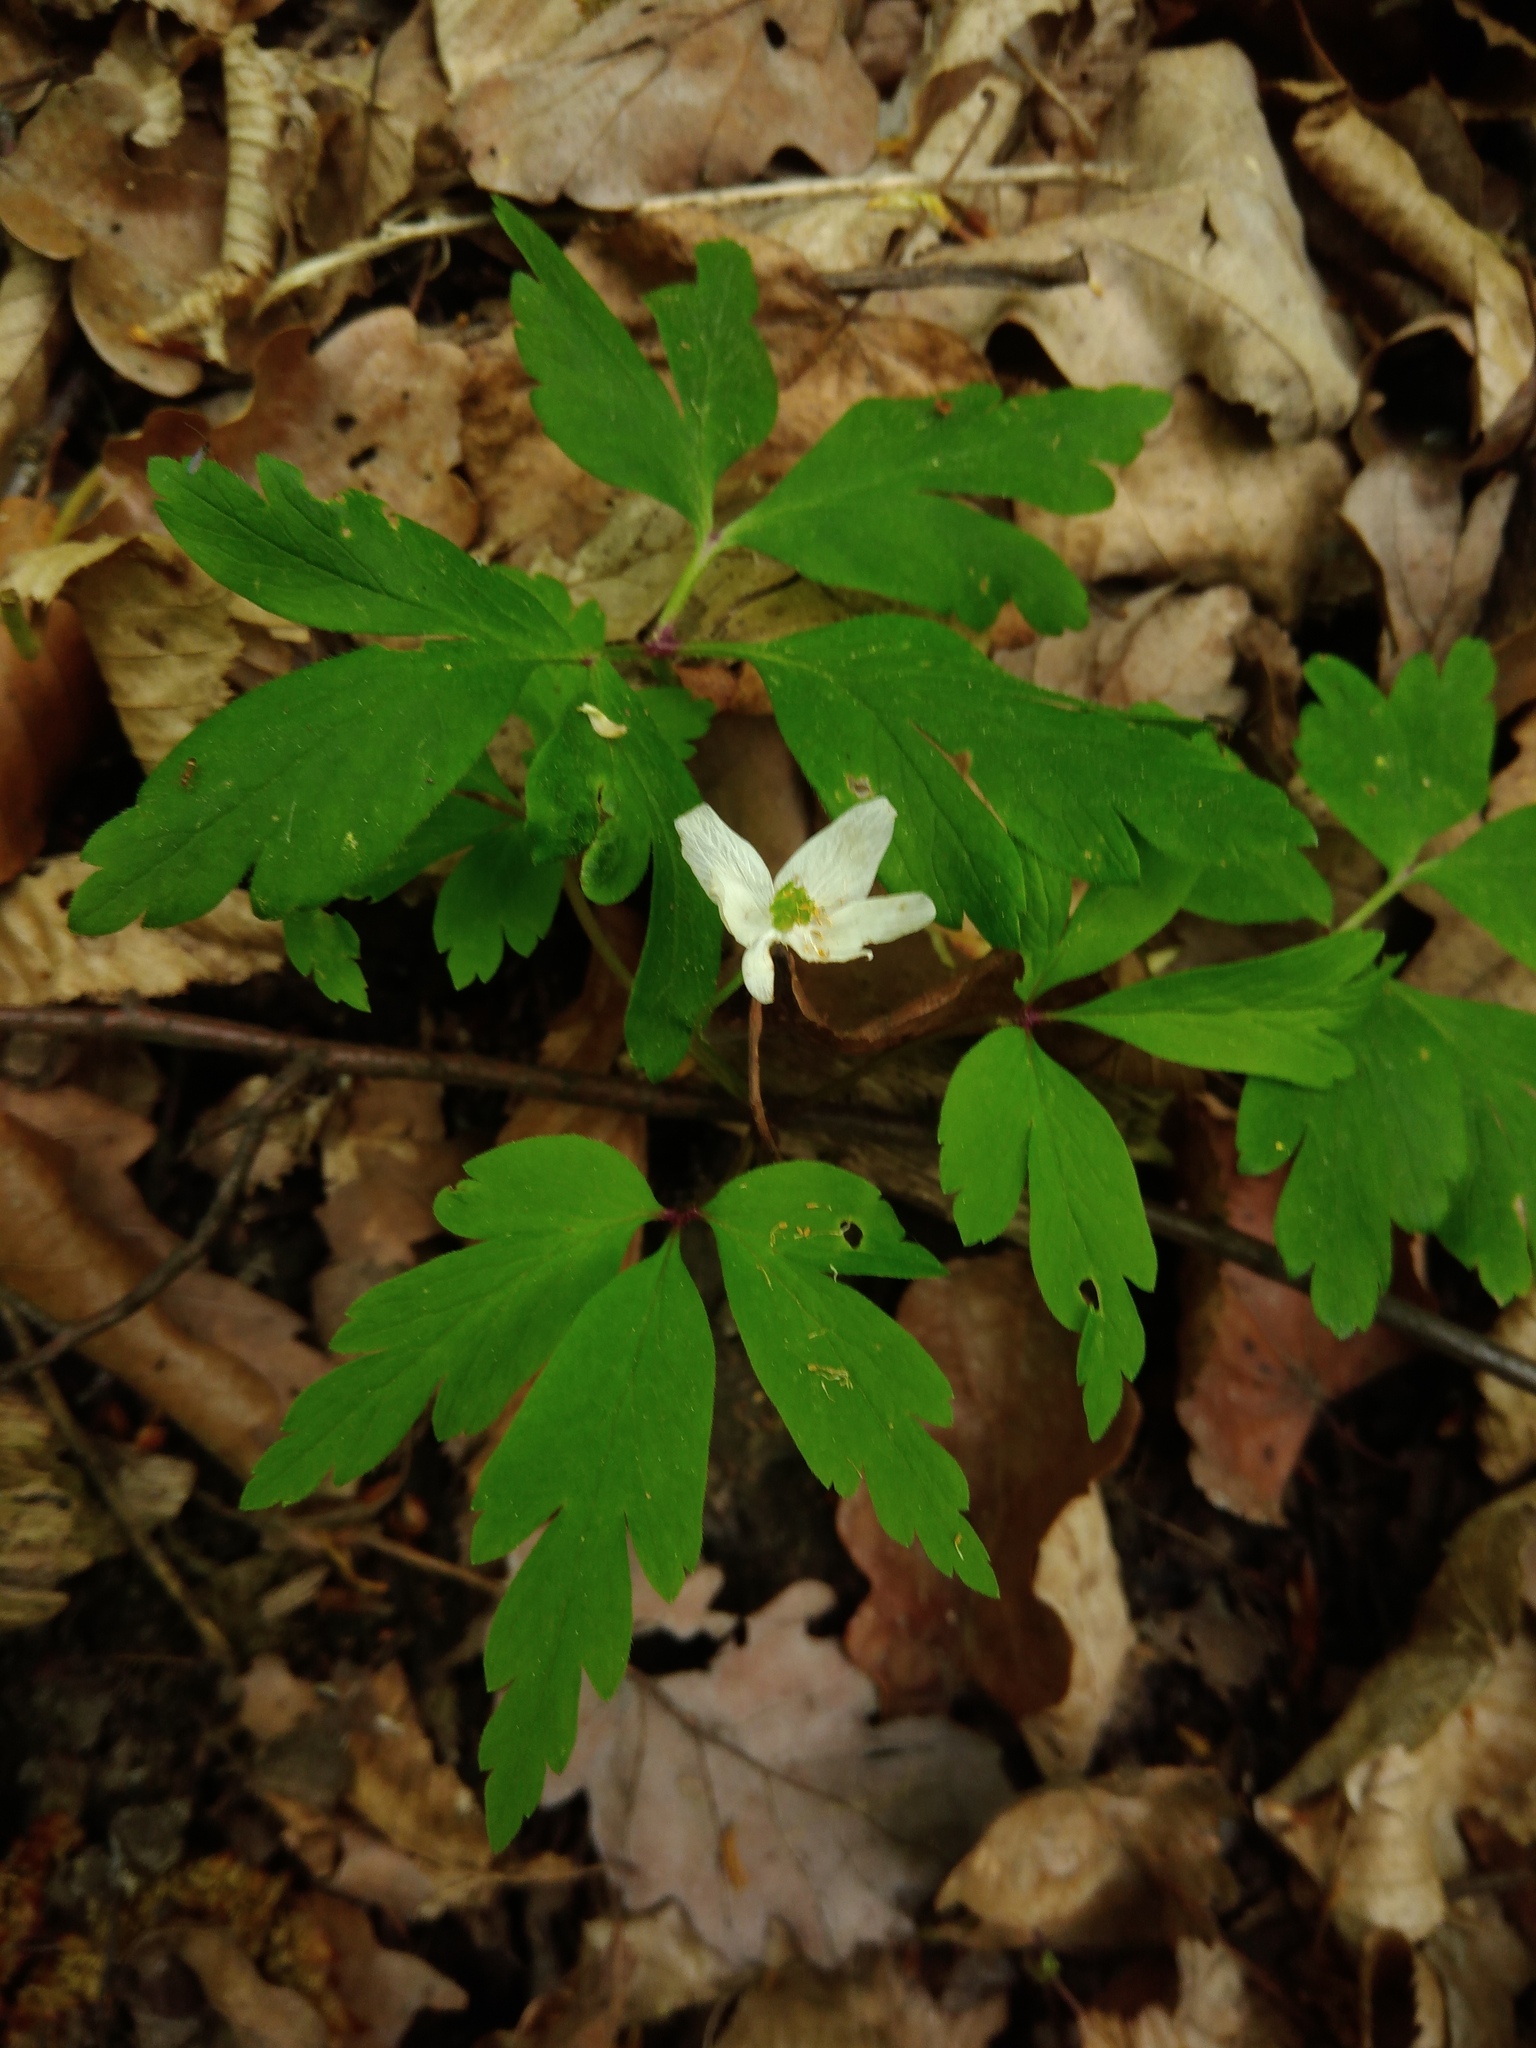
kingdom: Plantae
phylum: Tracheophyta
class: Magnoliopsida
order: Ranunculales
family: Ranunculaceae
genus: Anemone
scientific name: Anemone nemorosa
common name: Wood anemone
